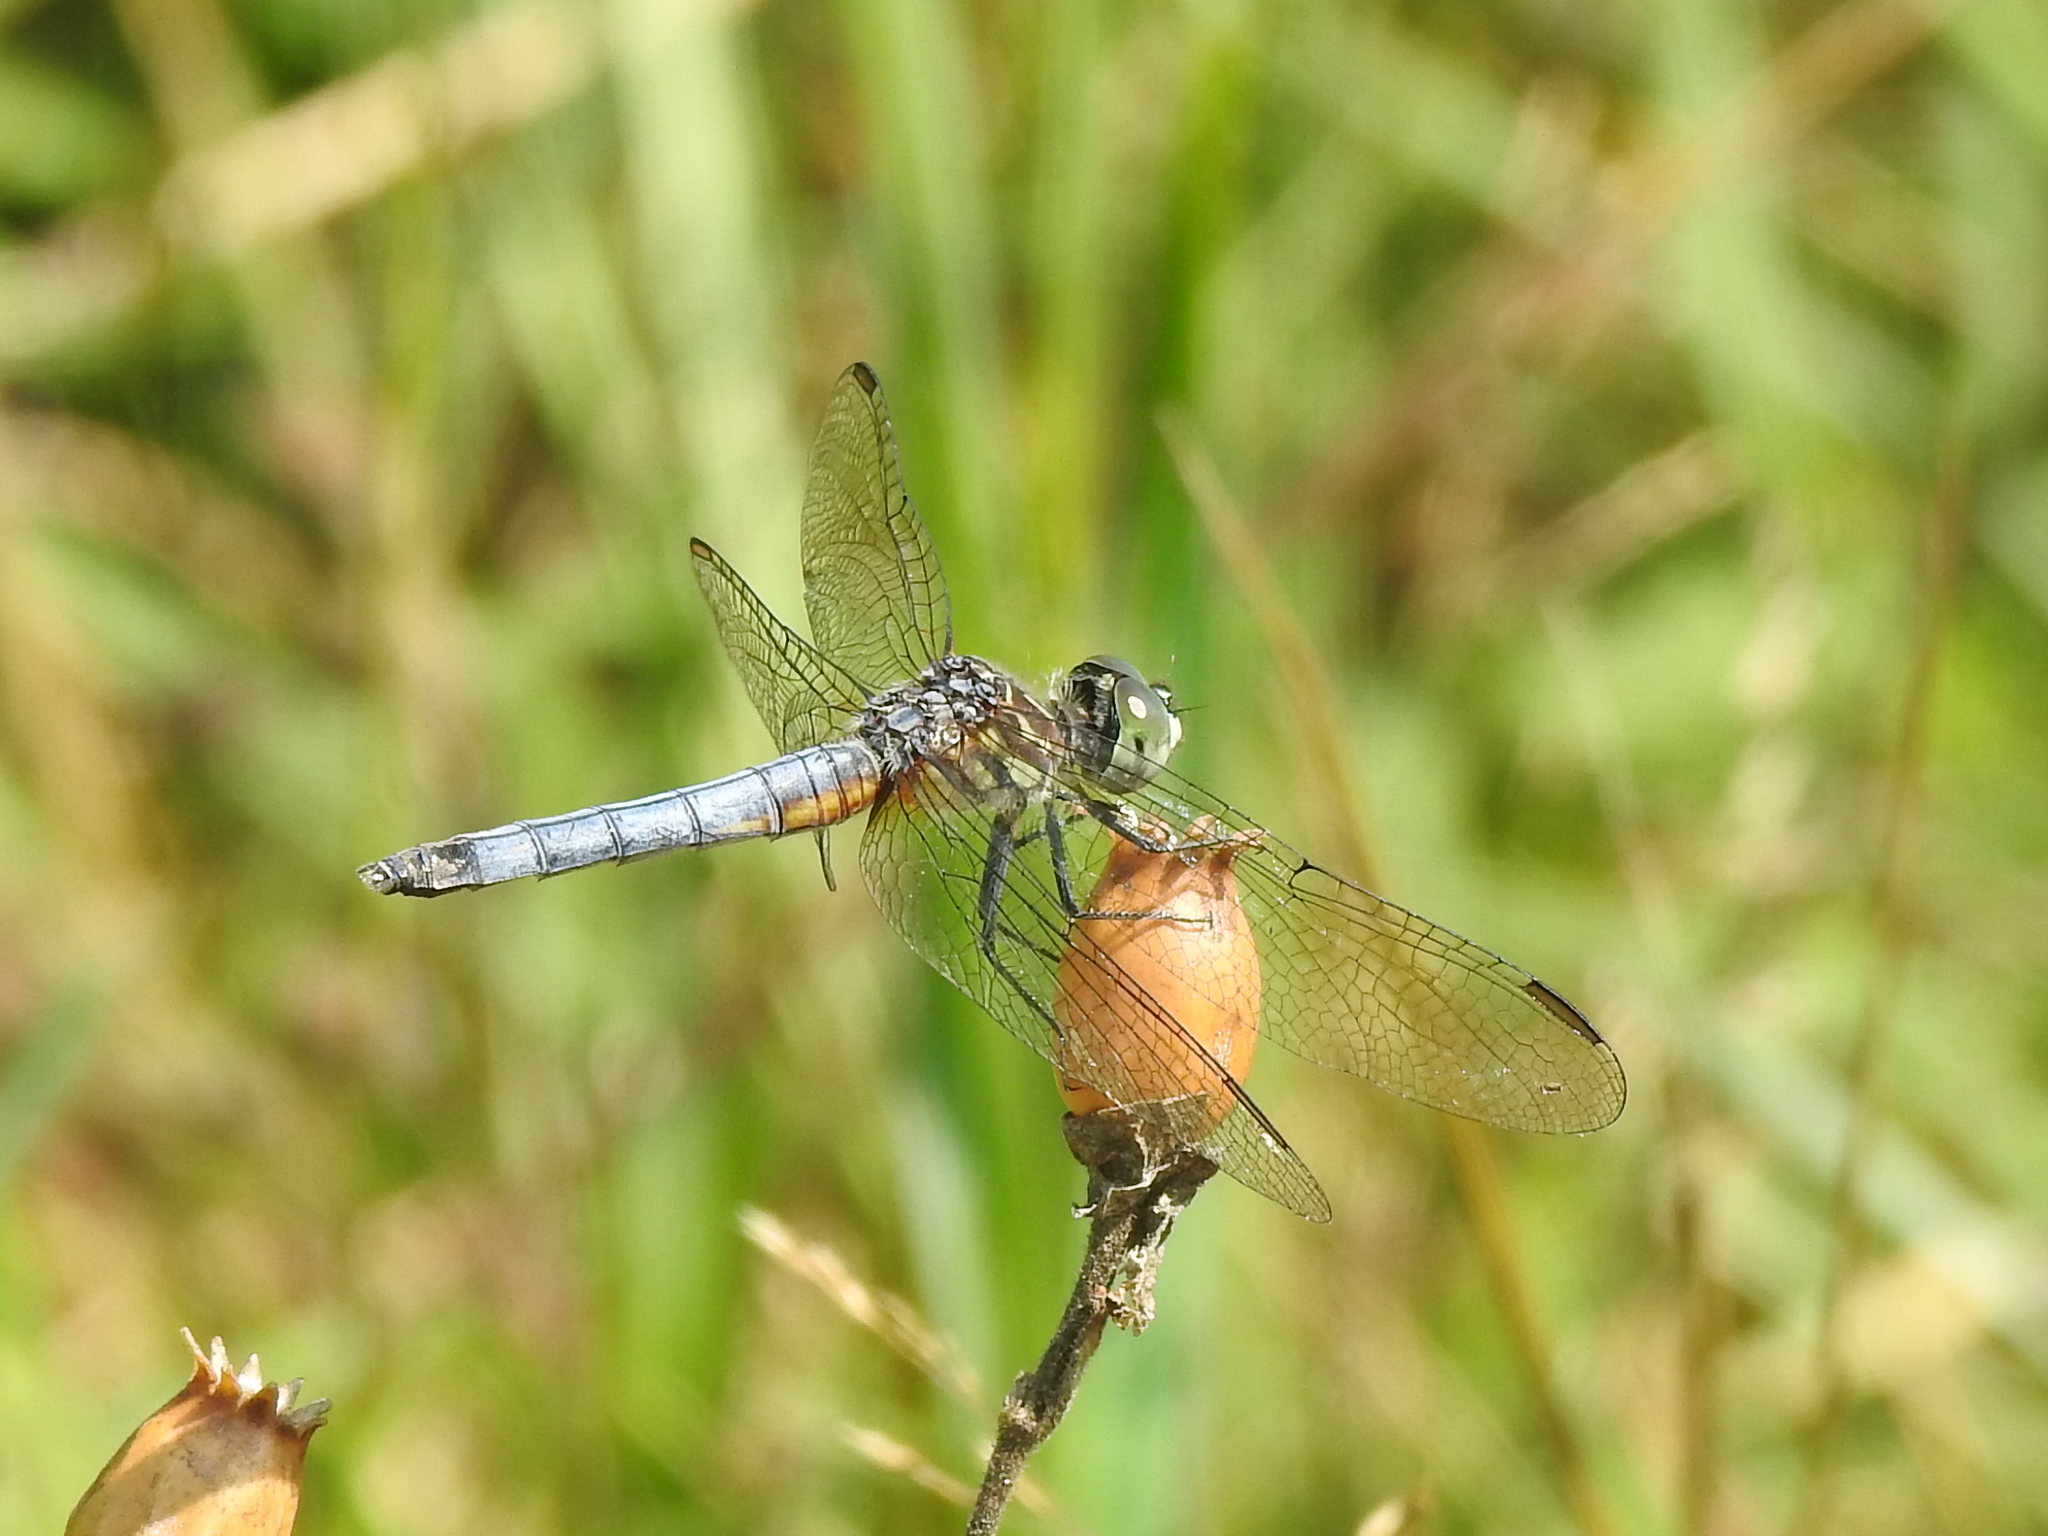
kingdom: Animalia
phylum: Arthropoda
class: Insecta
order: Odonata
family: Libellulidae
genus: Pachydiplax
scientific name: Pachydiplax longipennis
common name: Blue dasher
